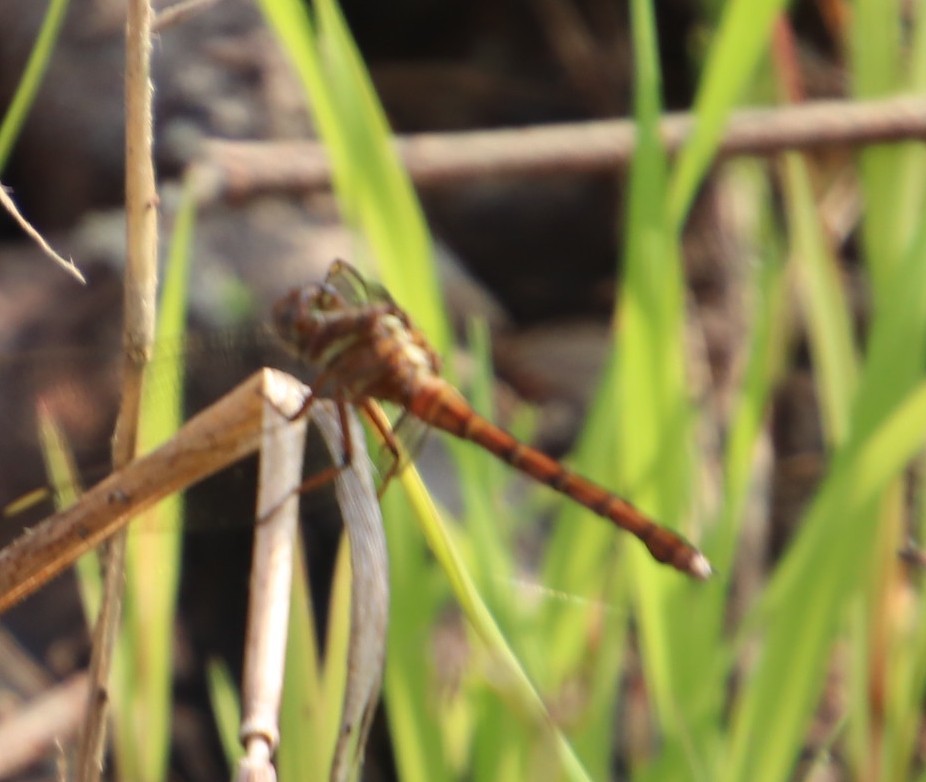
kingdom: Animalia
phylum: Arthropoda
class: Insecta
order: Odonata
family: Libellulidae
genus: Orthetrum
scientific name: Orthetrum julia
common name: Julia skimmer
